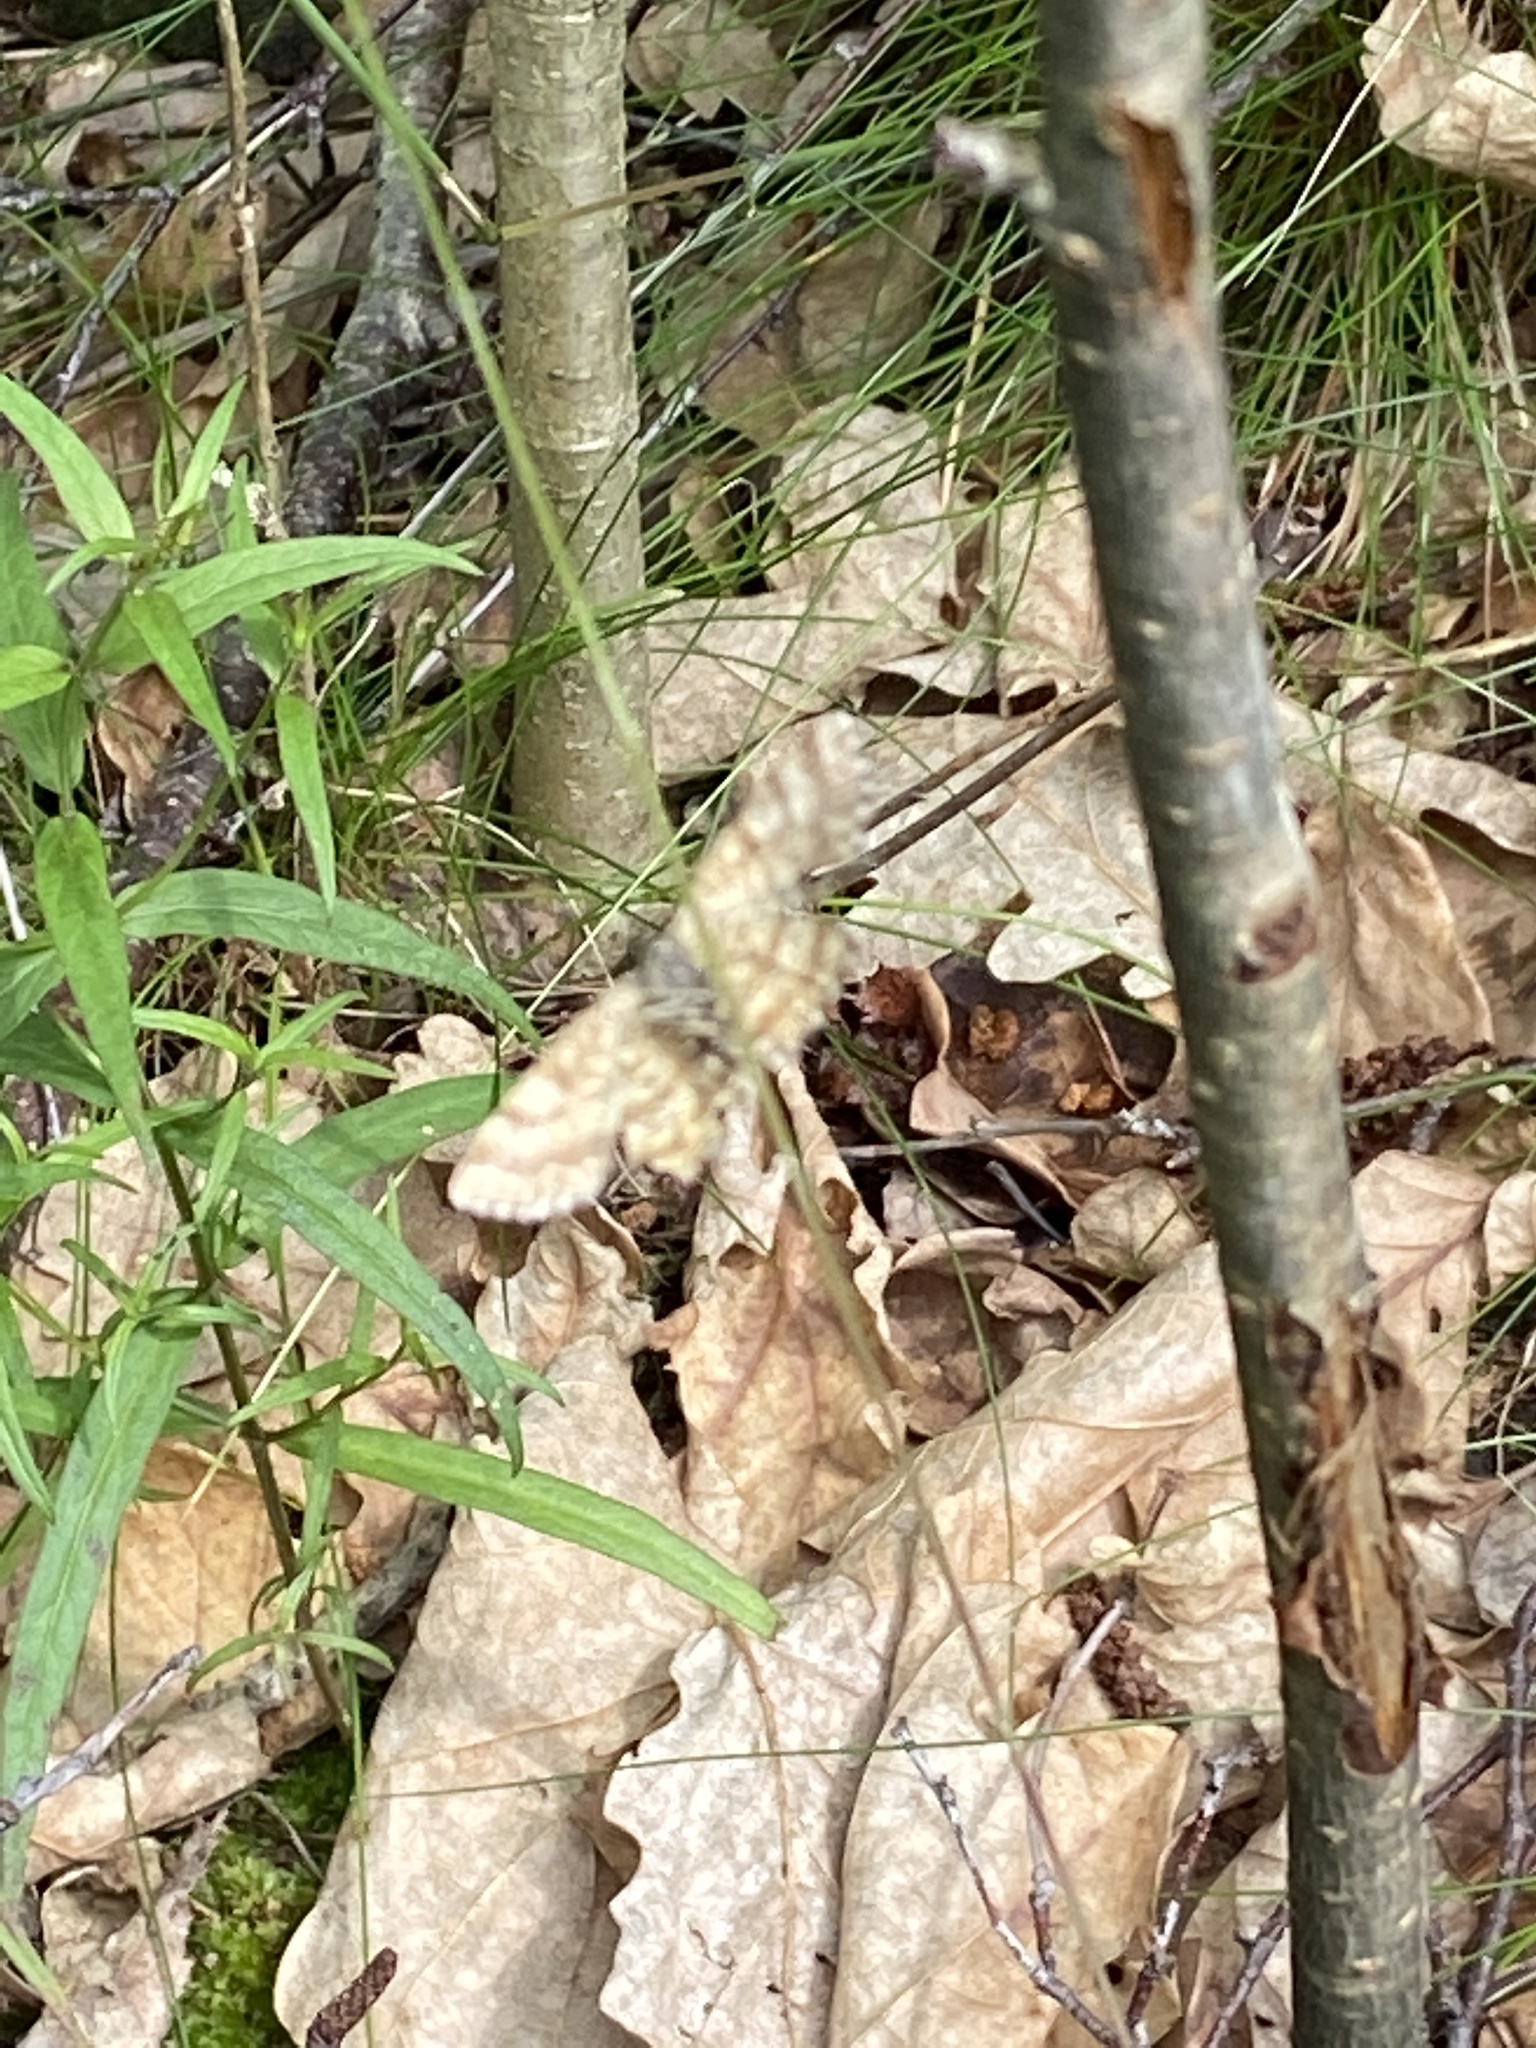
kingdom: Animalia
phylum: Arthropoda
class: Insecta
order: Lepidoptera
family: Geometridae
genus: Ematurga
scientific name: Ematurga atomaria
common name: Common heath
